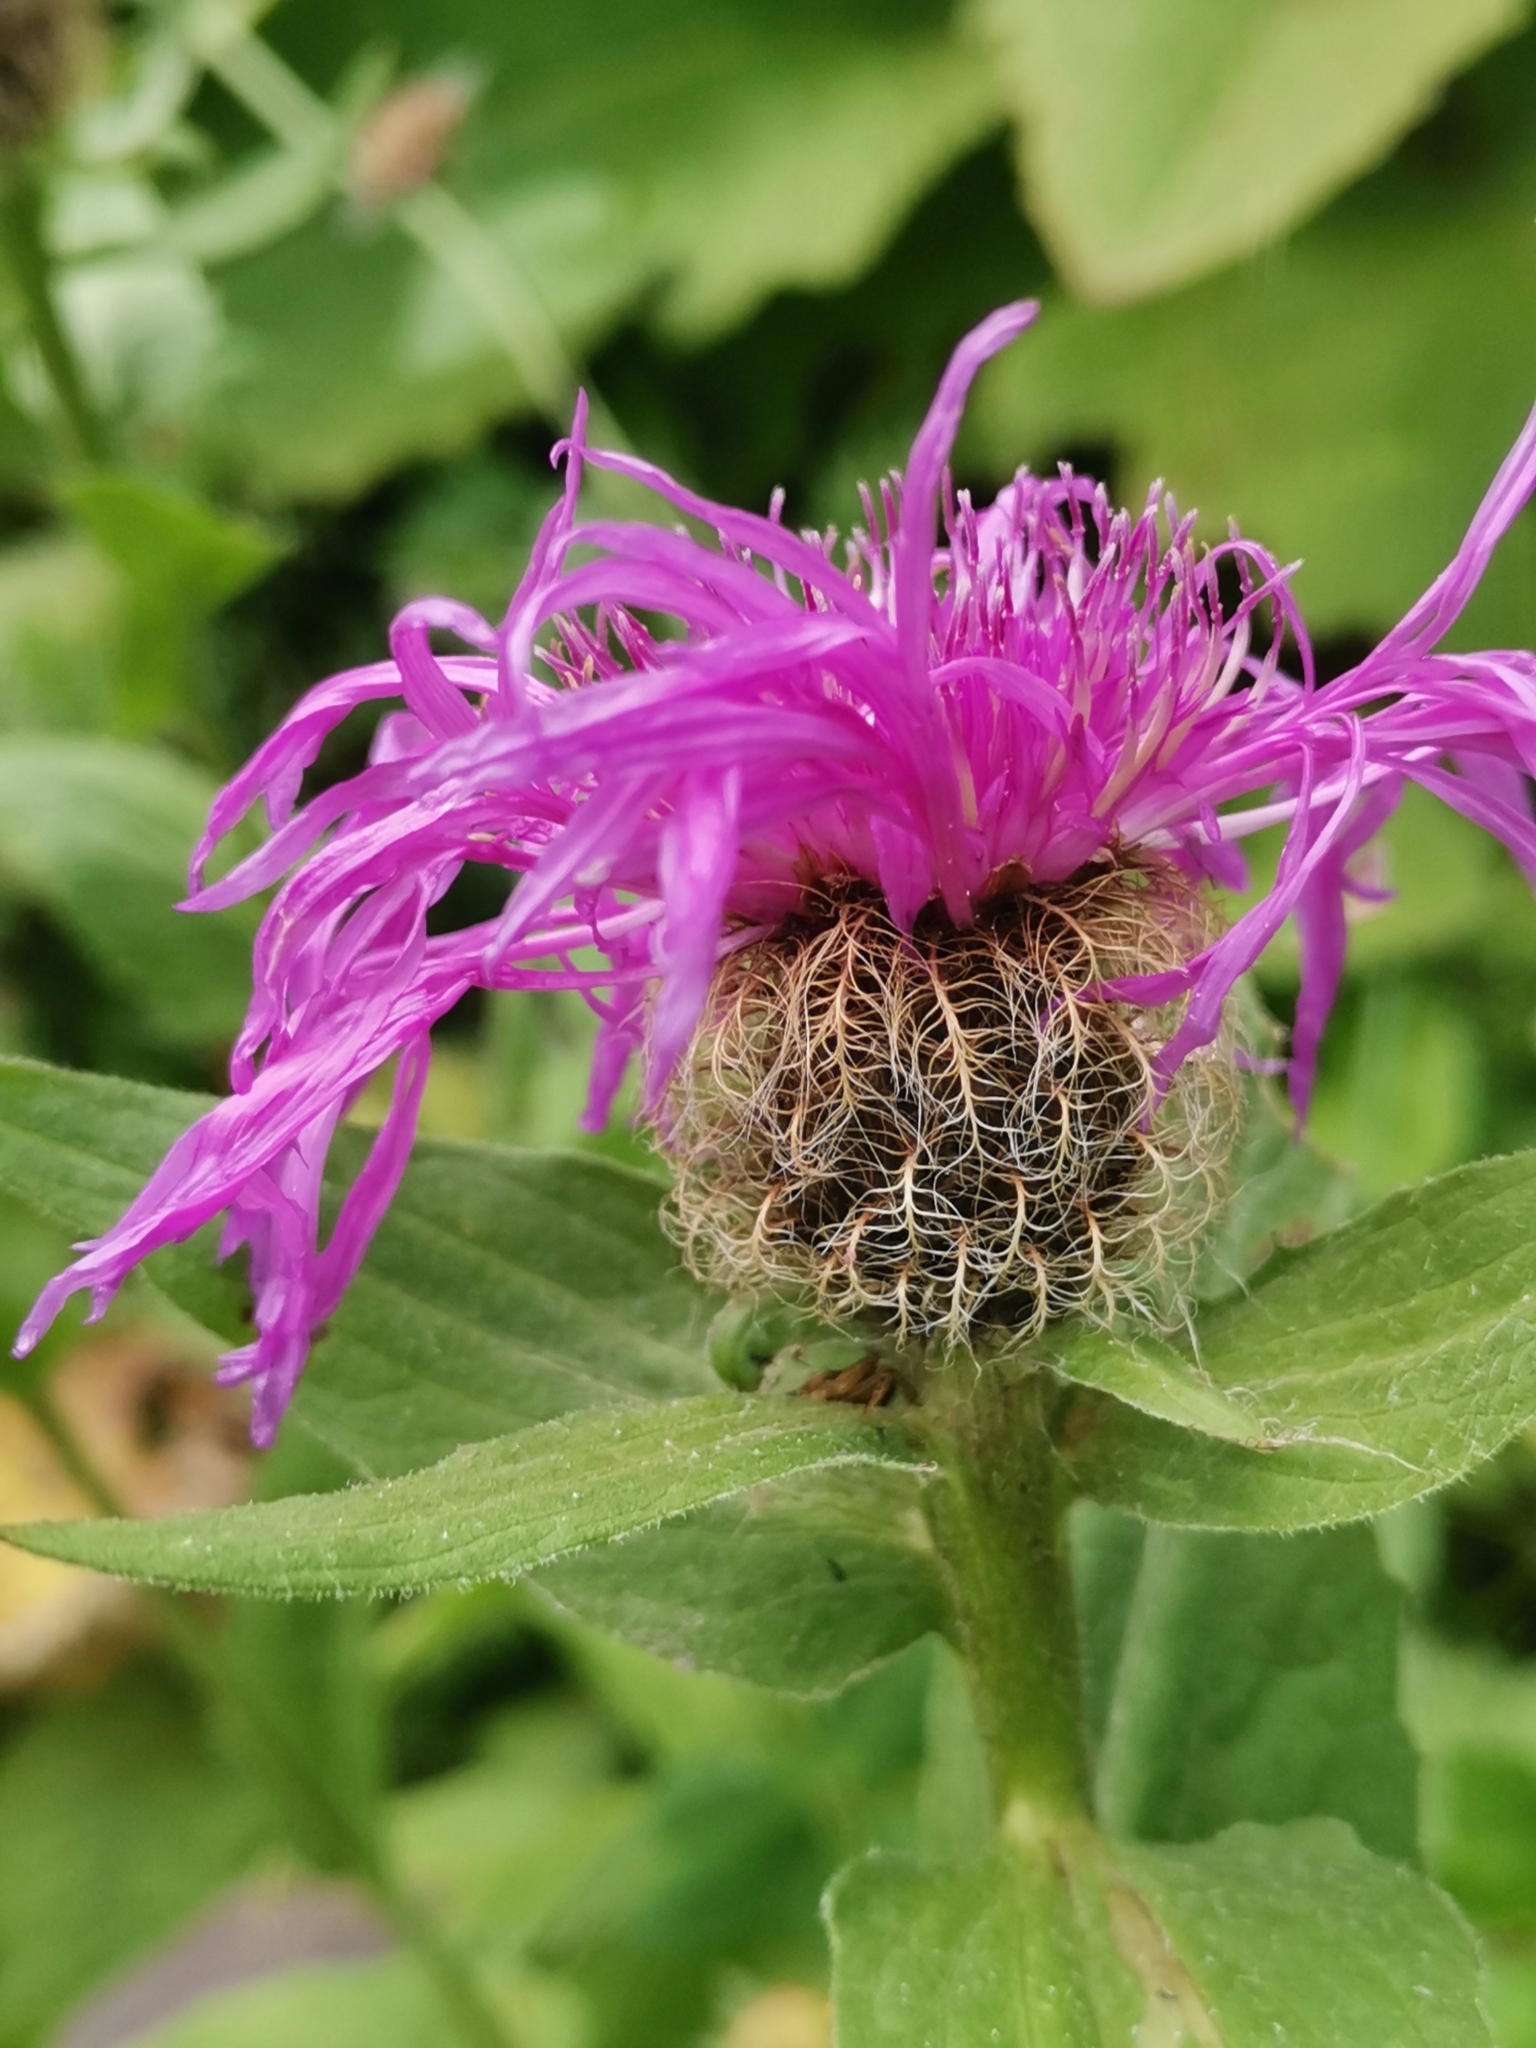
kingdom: Plantae
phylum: Tracheophyta
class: Magnoliopsida
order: Asterales
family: Asteraceae
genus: Centaurea
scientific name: Centaurea nervosa
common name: Singleflower knapweed
